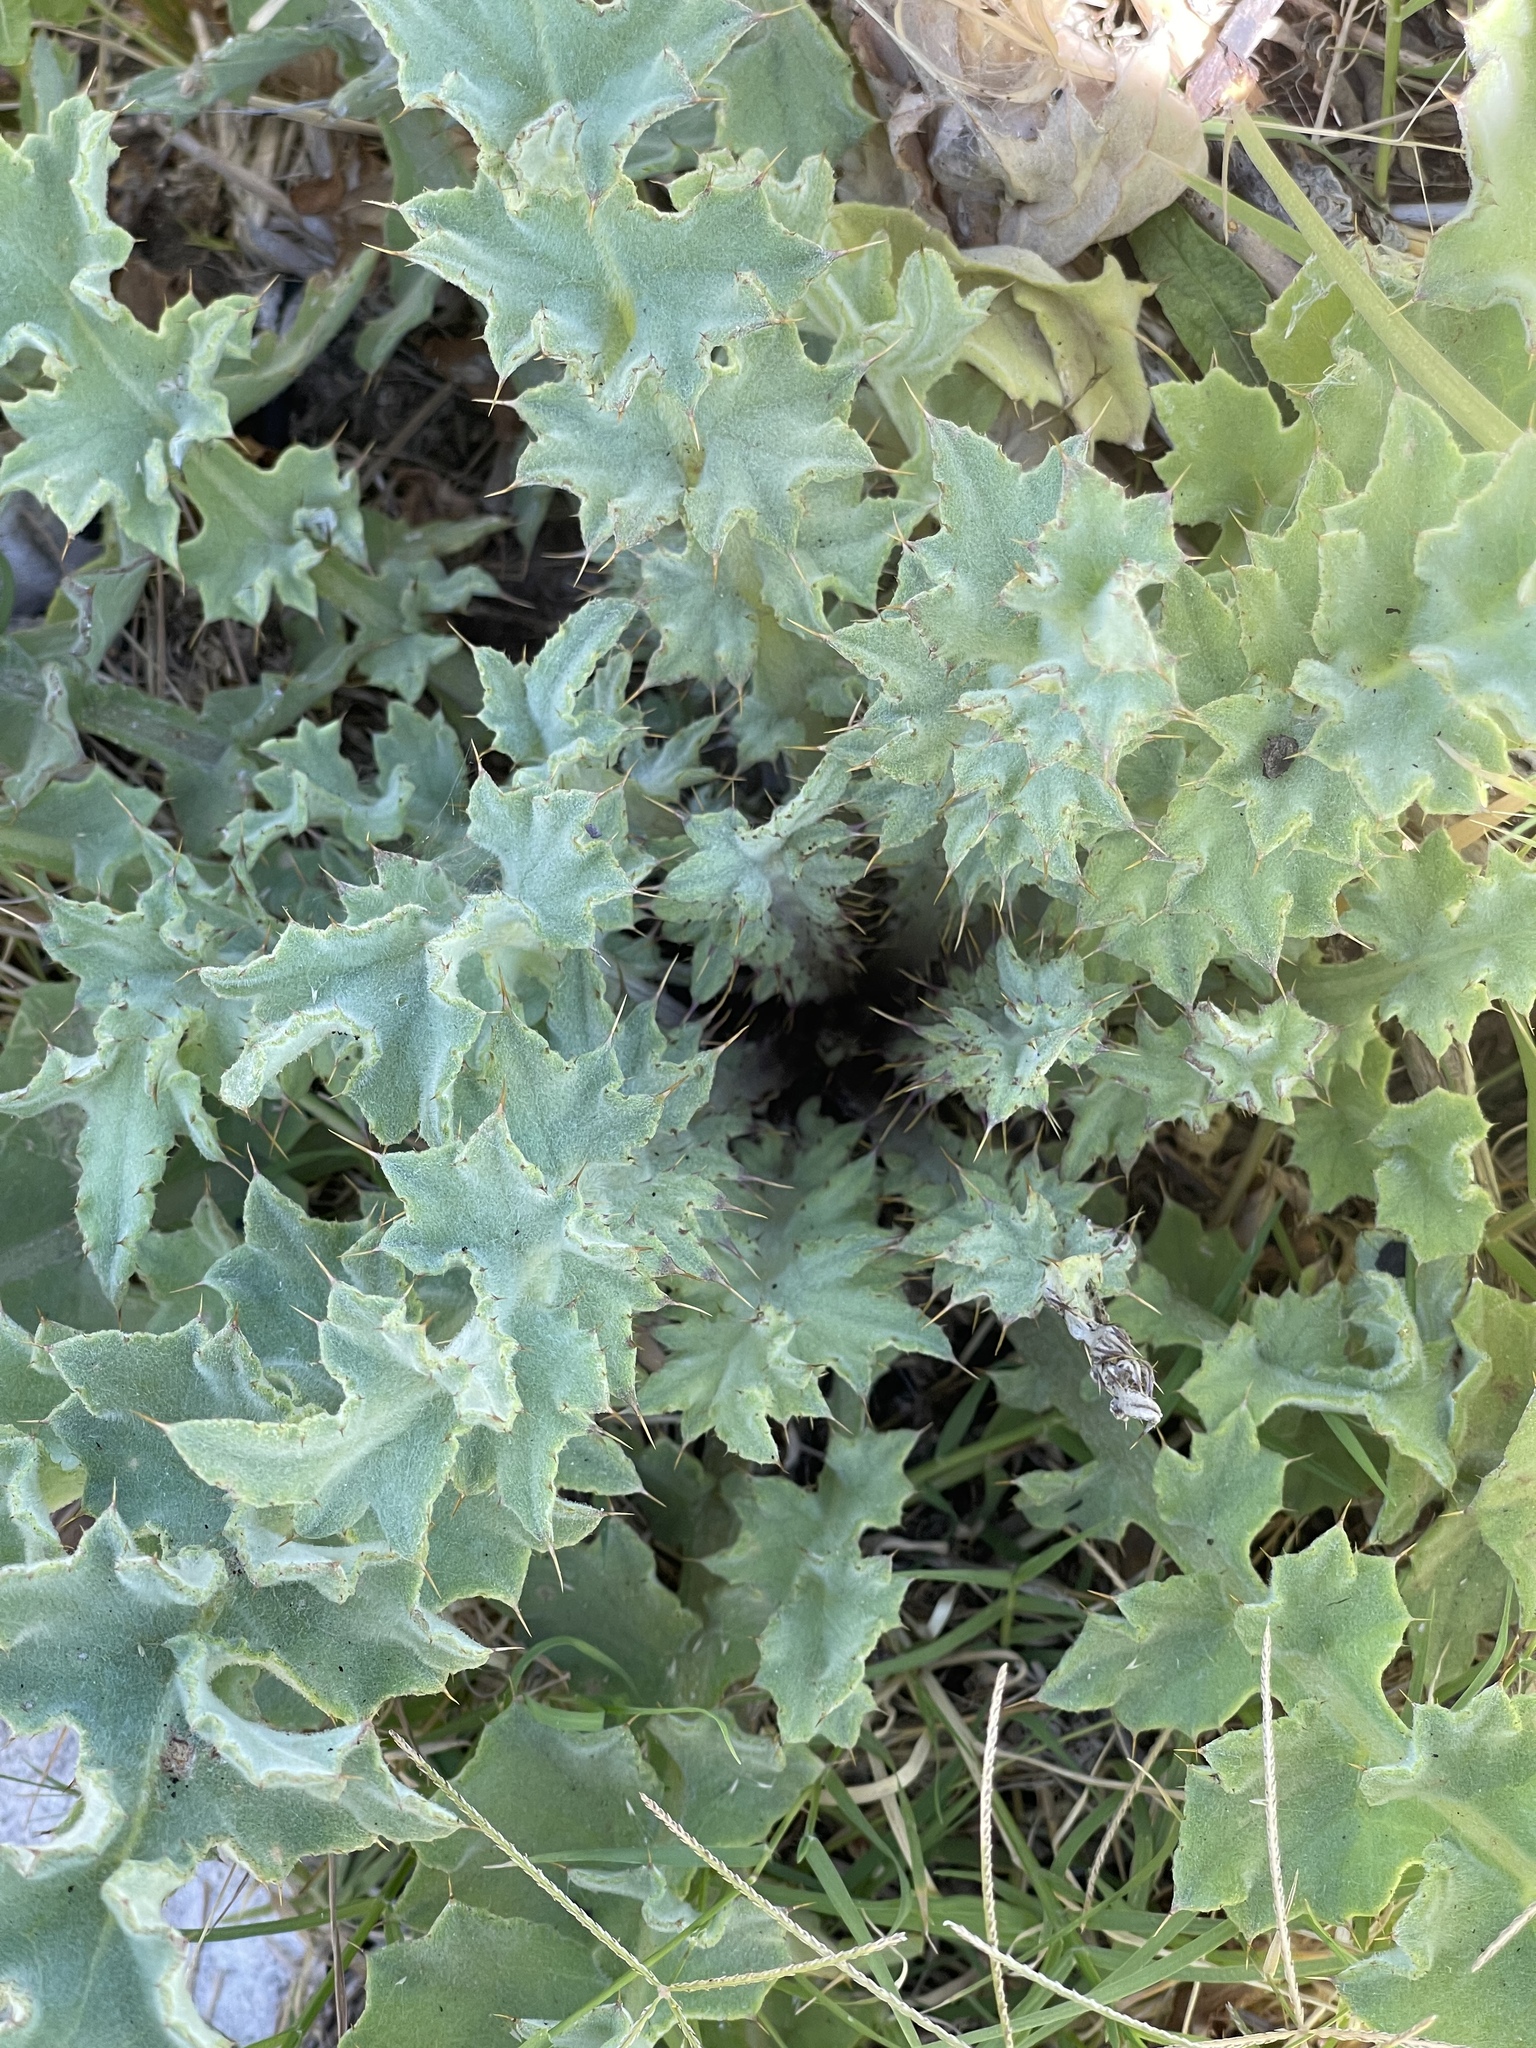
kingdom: Plantae
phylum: Tracheophyta
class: Magnoliopsida
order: Asterales
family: Asteraceae
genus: Cirsium
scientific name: Cirsium fontinale
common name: Fountain thistle
